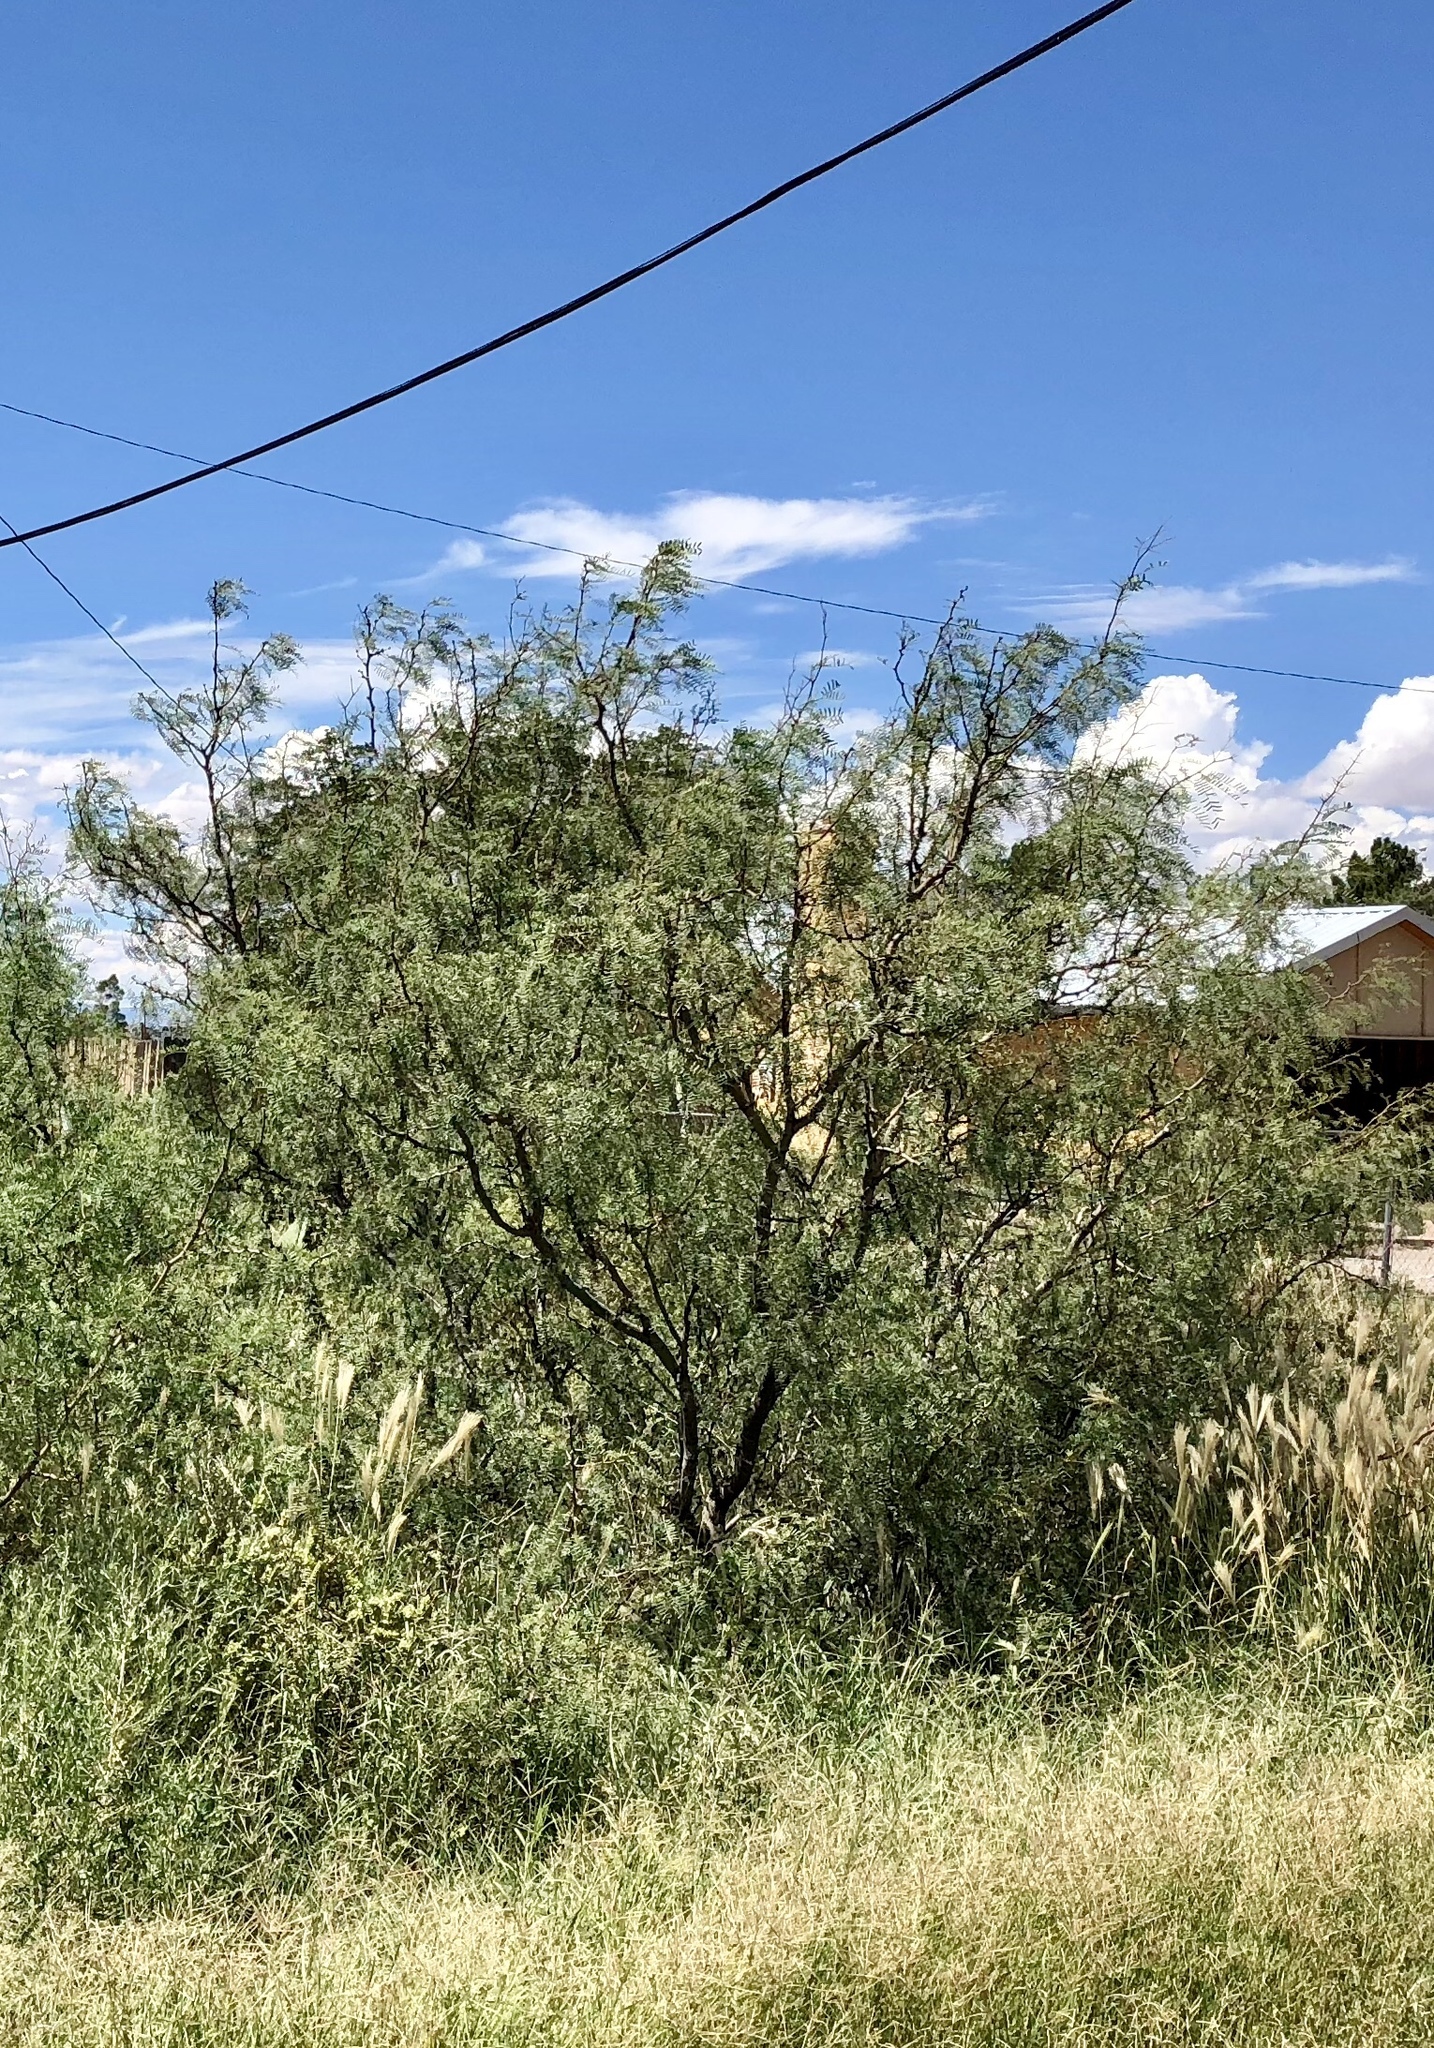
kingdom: Plantae
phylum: Tracheophyta
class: Magnoliopsida
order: Fabales
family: Fabaceae
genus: Prosopis
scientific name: Prosopis glandulosa
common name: Honey mesquite
